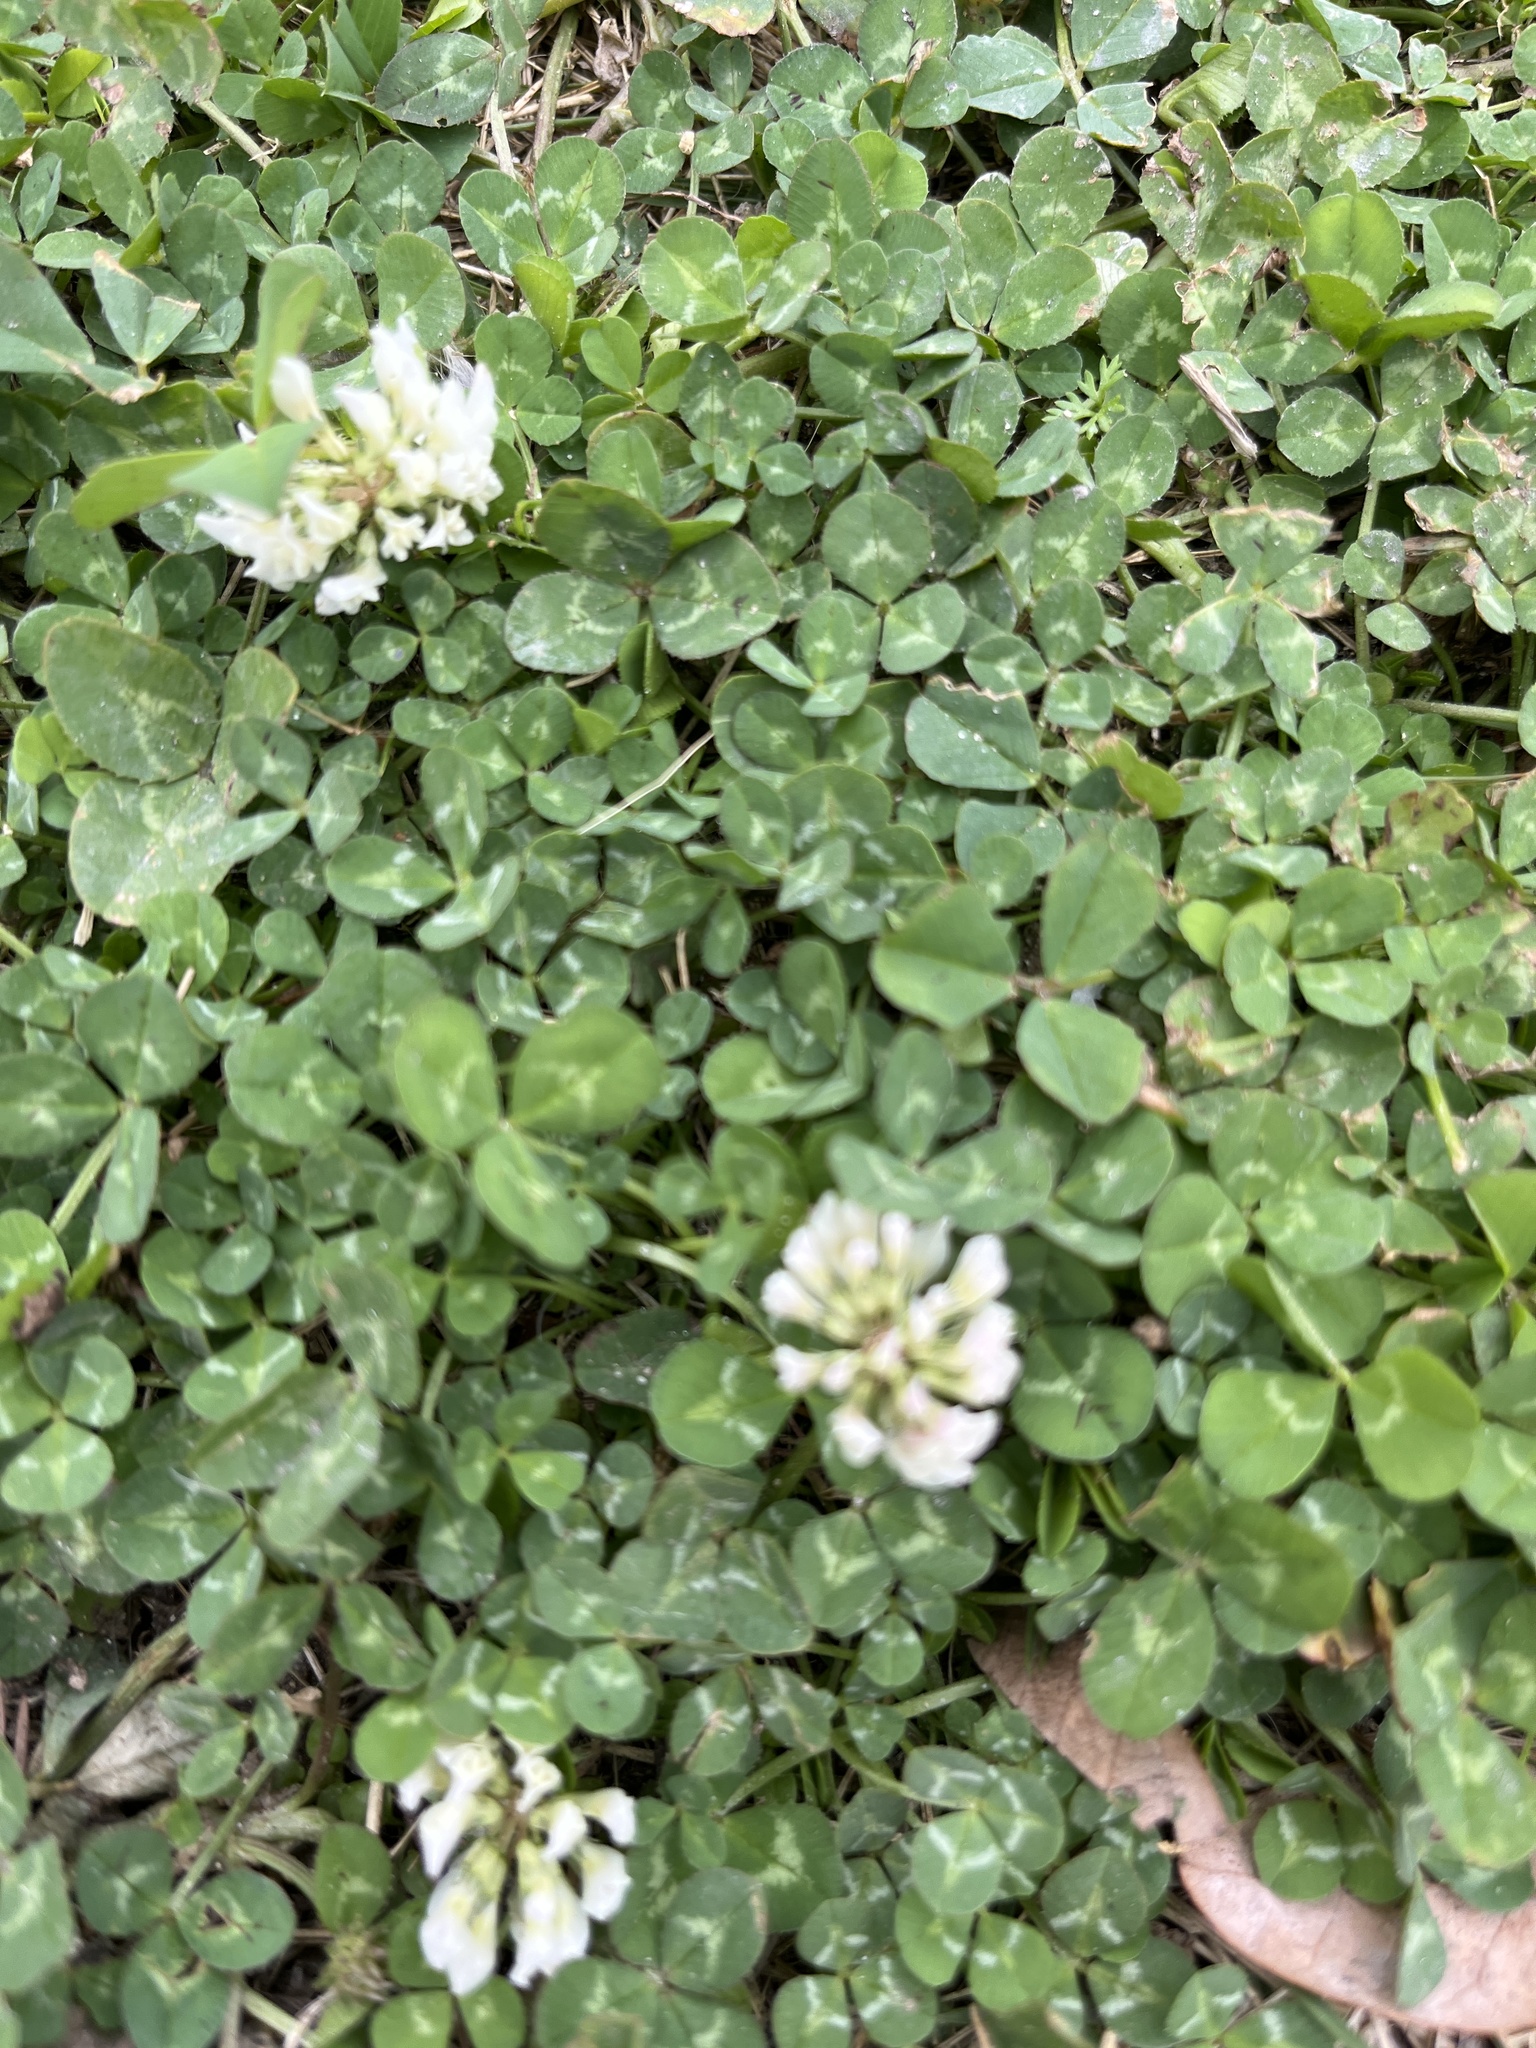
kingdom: Plantae
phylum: Tracheophyta
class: Magnoliopsida
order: Fabales
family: Fabaceae
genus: Trifolium
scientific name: Trifolium repens
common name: White clover
